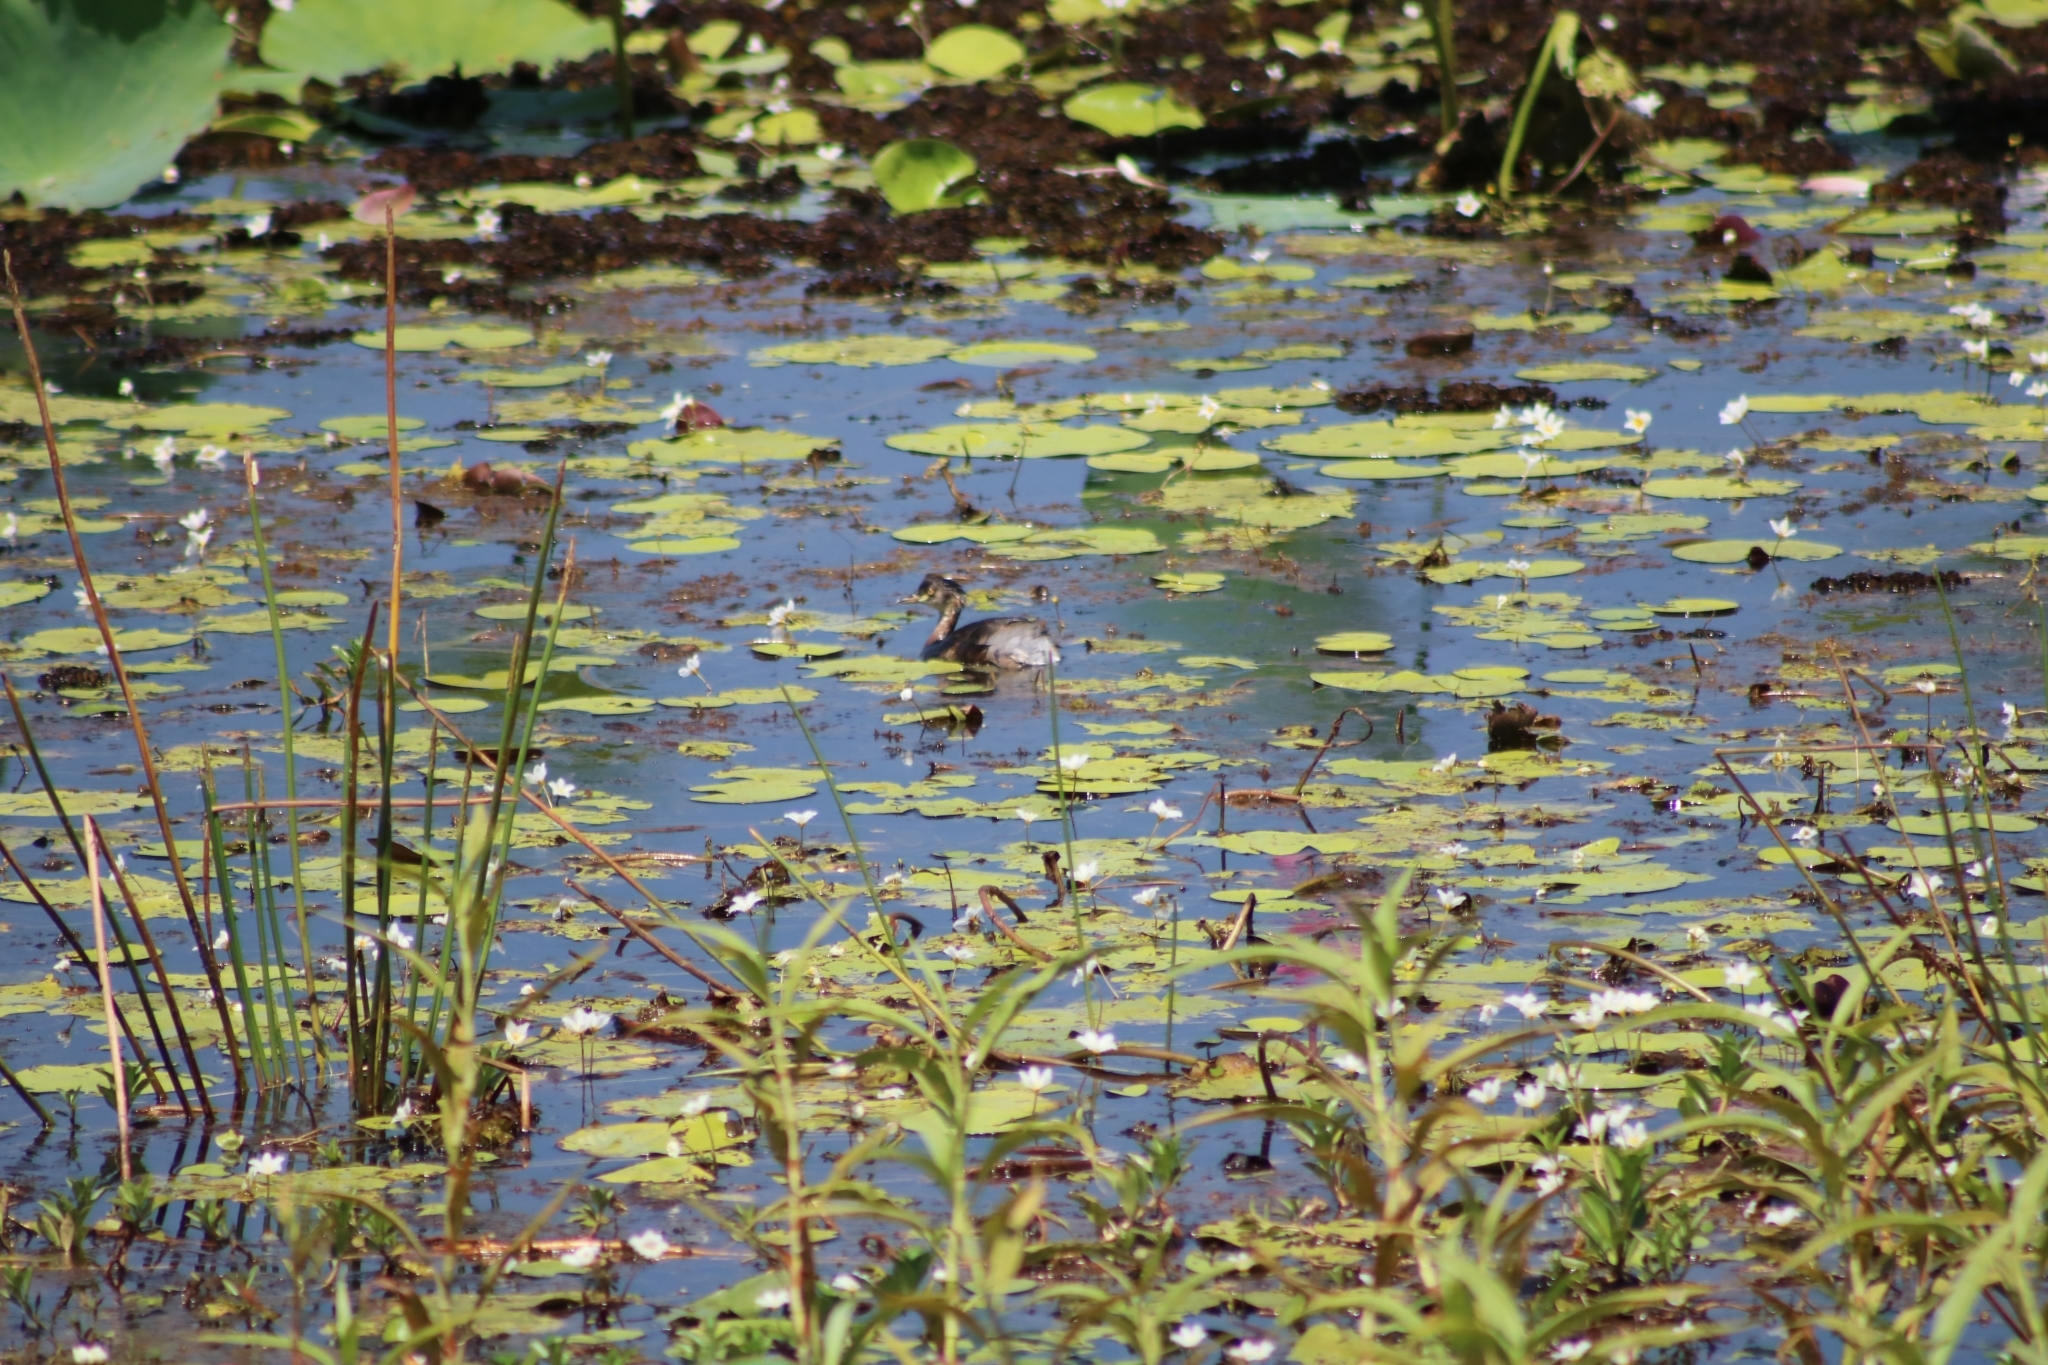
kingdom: Animalia
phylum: Chordata
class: Aves
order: Podicipediformes
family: Podicipedidae
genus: Tachybaptus
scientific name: Tachybaptus novaehollandiae
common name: Australasian grebe
